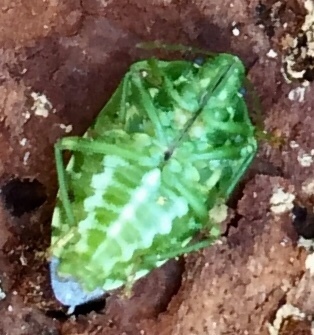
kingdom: Animalia
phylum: Arthropoda
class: Insecta
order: Hemiptera
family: Pentatomidae
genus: Banasa
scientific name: Banasa euchlora
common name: Cedar berry bug
